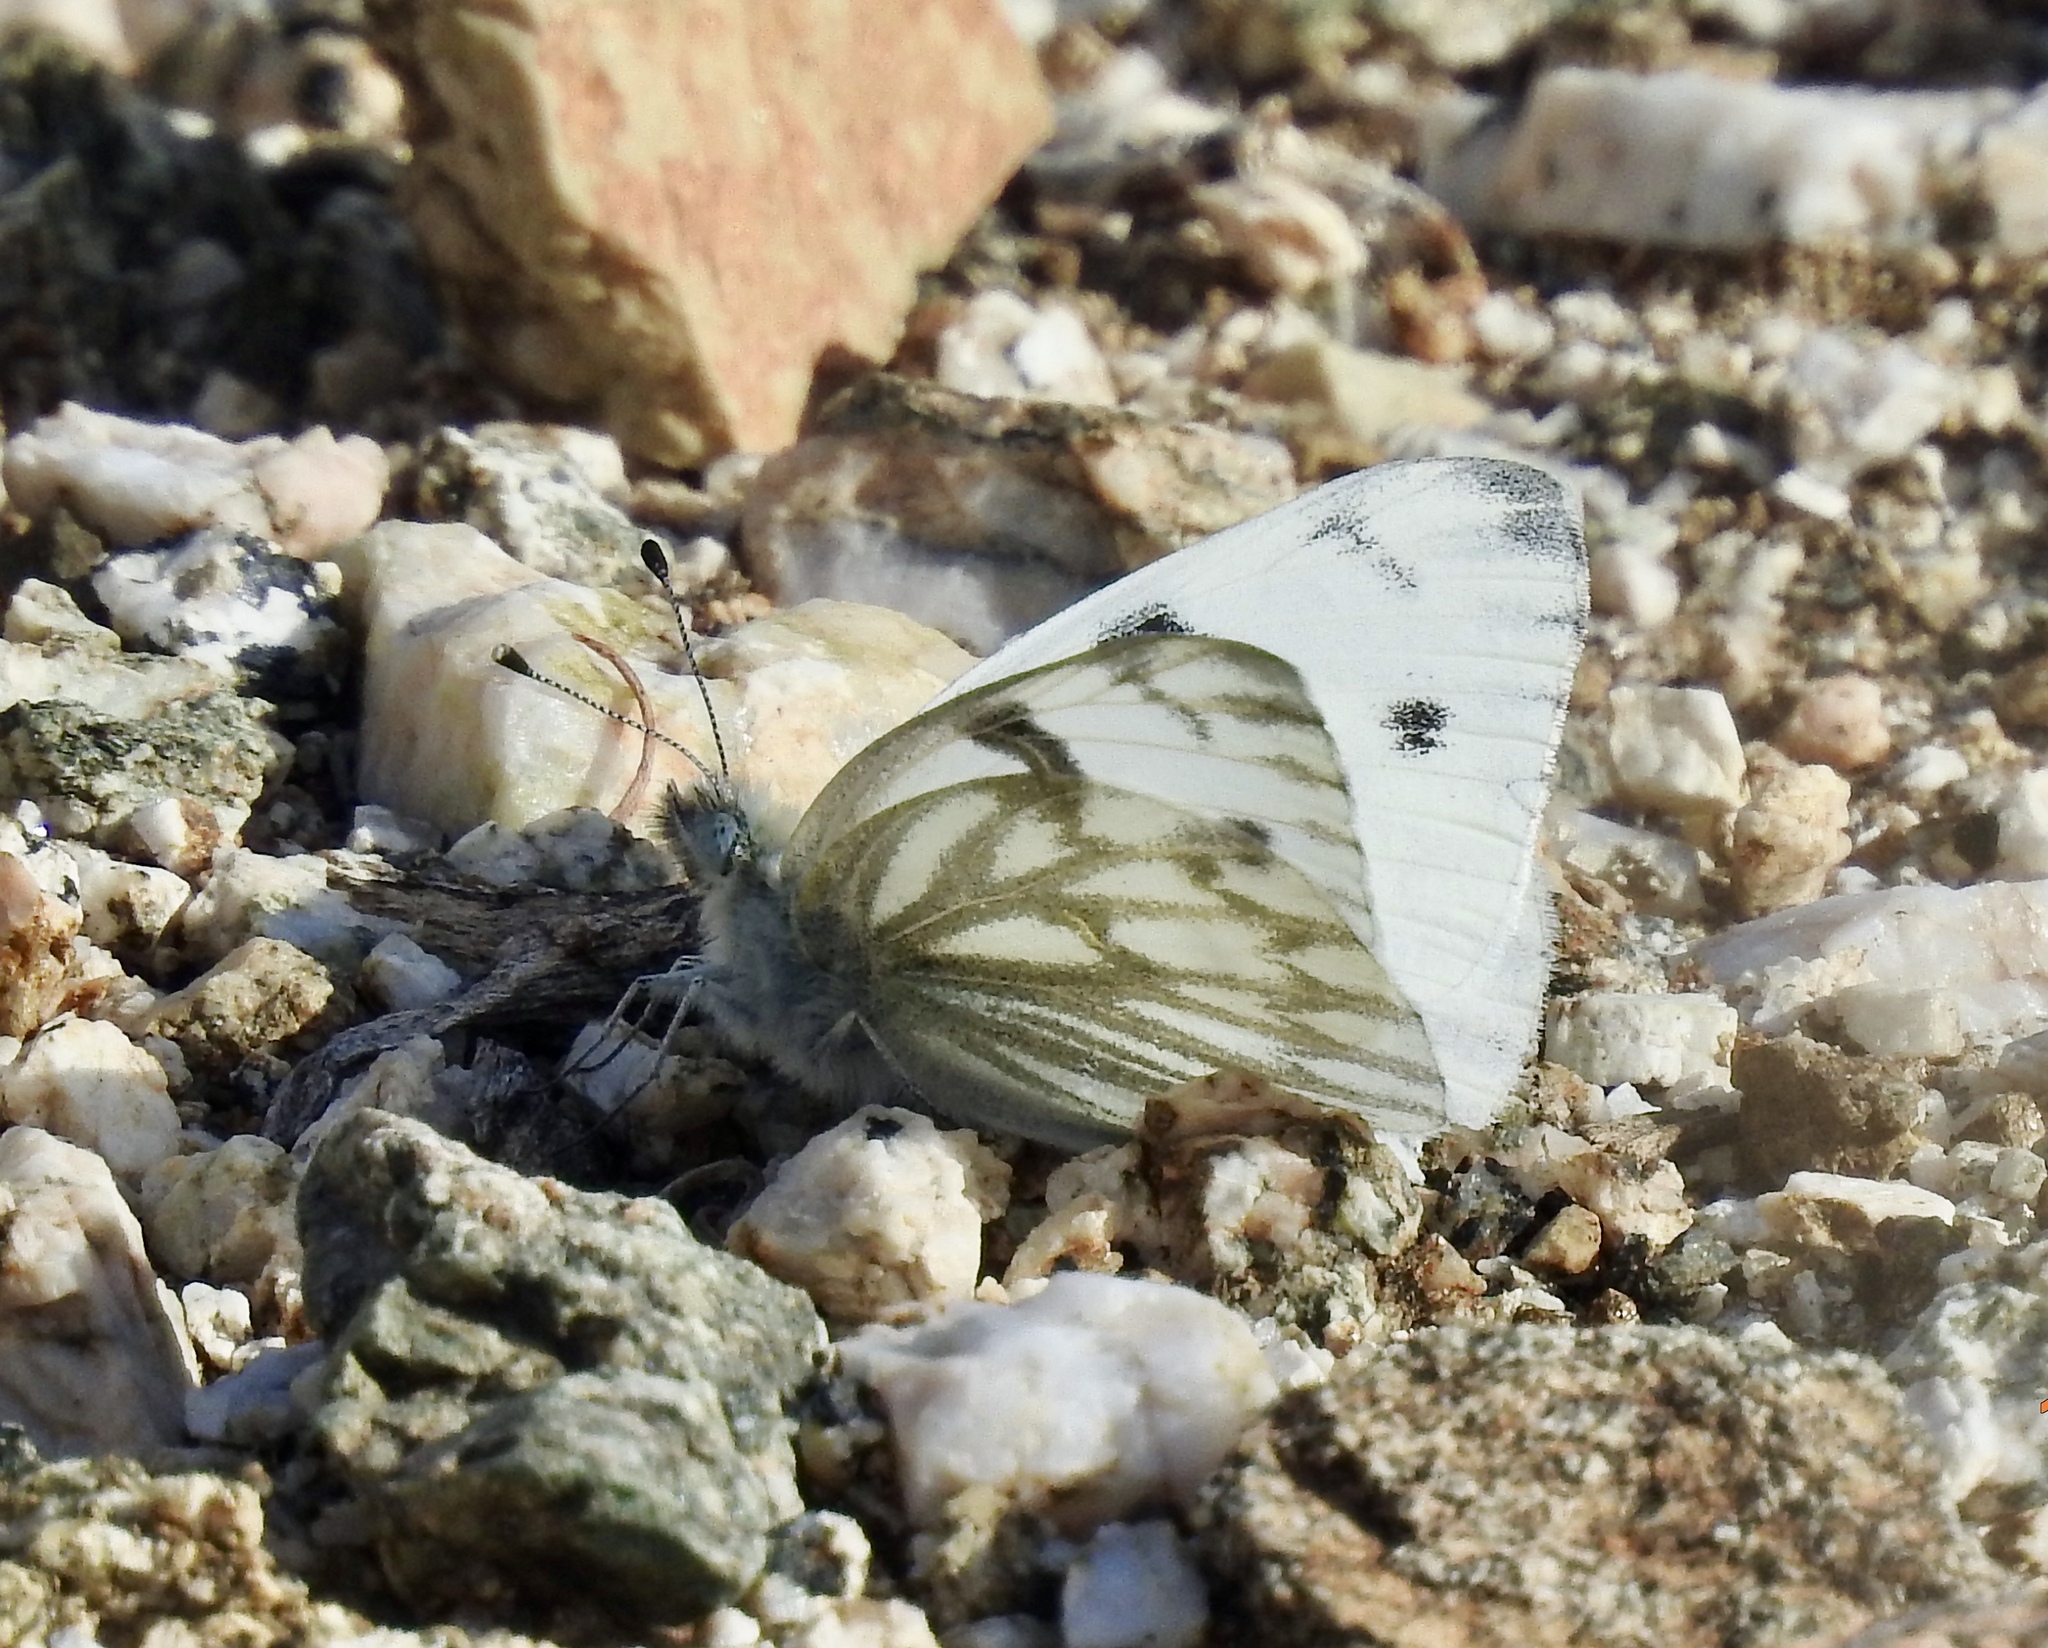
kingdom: Animalia
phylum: Arthropoda
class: Insecta
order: Lepidoptera
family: Pieridae
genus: Pontia
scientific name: Pontia protodice
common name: Checkered white
